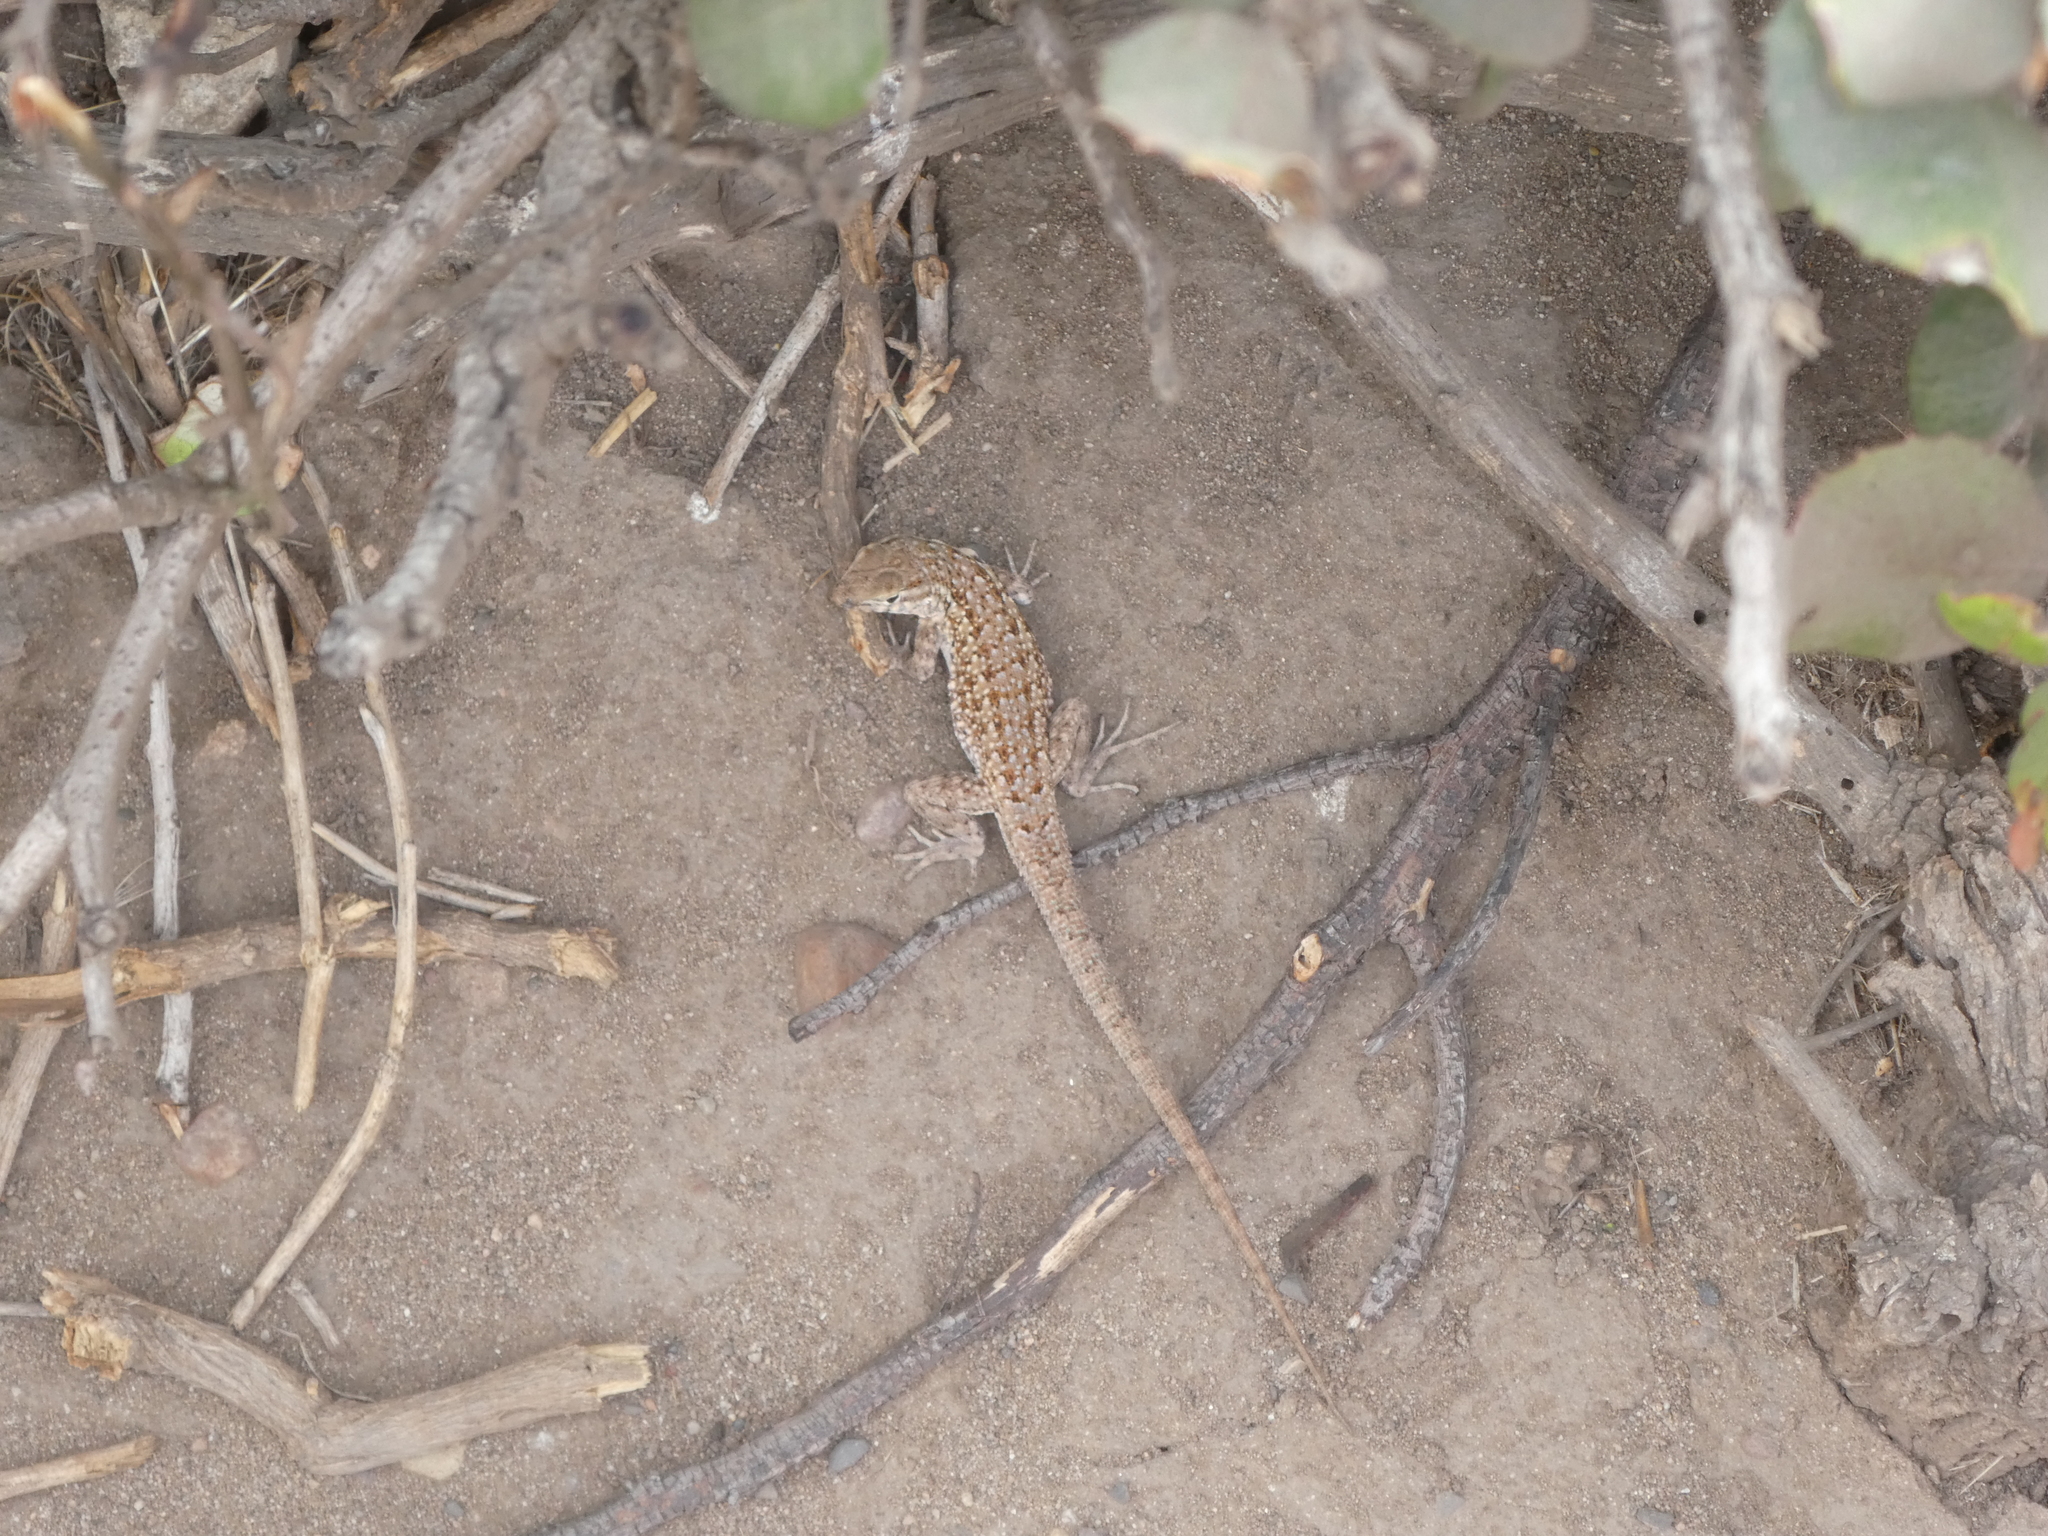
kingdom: Animalia
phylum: Chordata
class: Squamata
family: Phrynosomatidae
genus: Uta
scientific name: Uta stansburiana
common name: Side-blotched lizard
